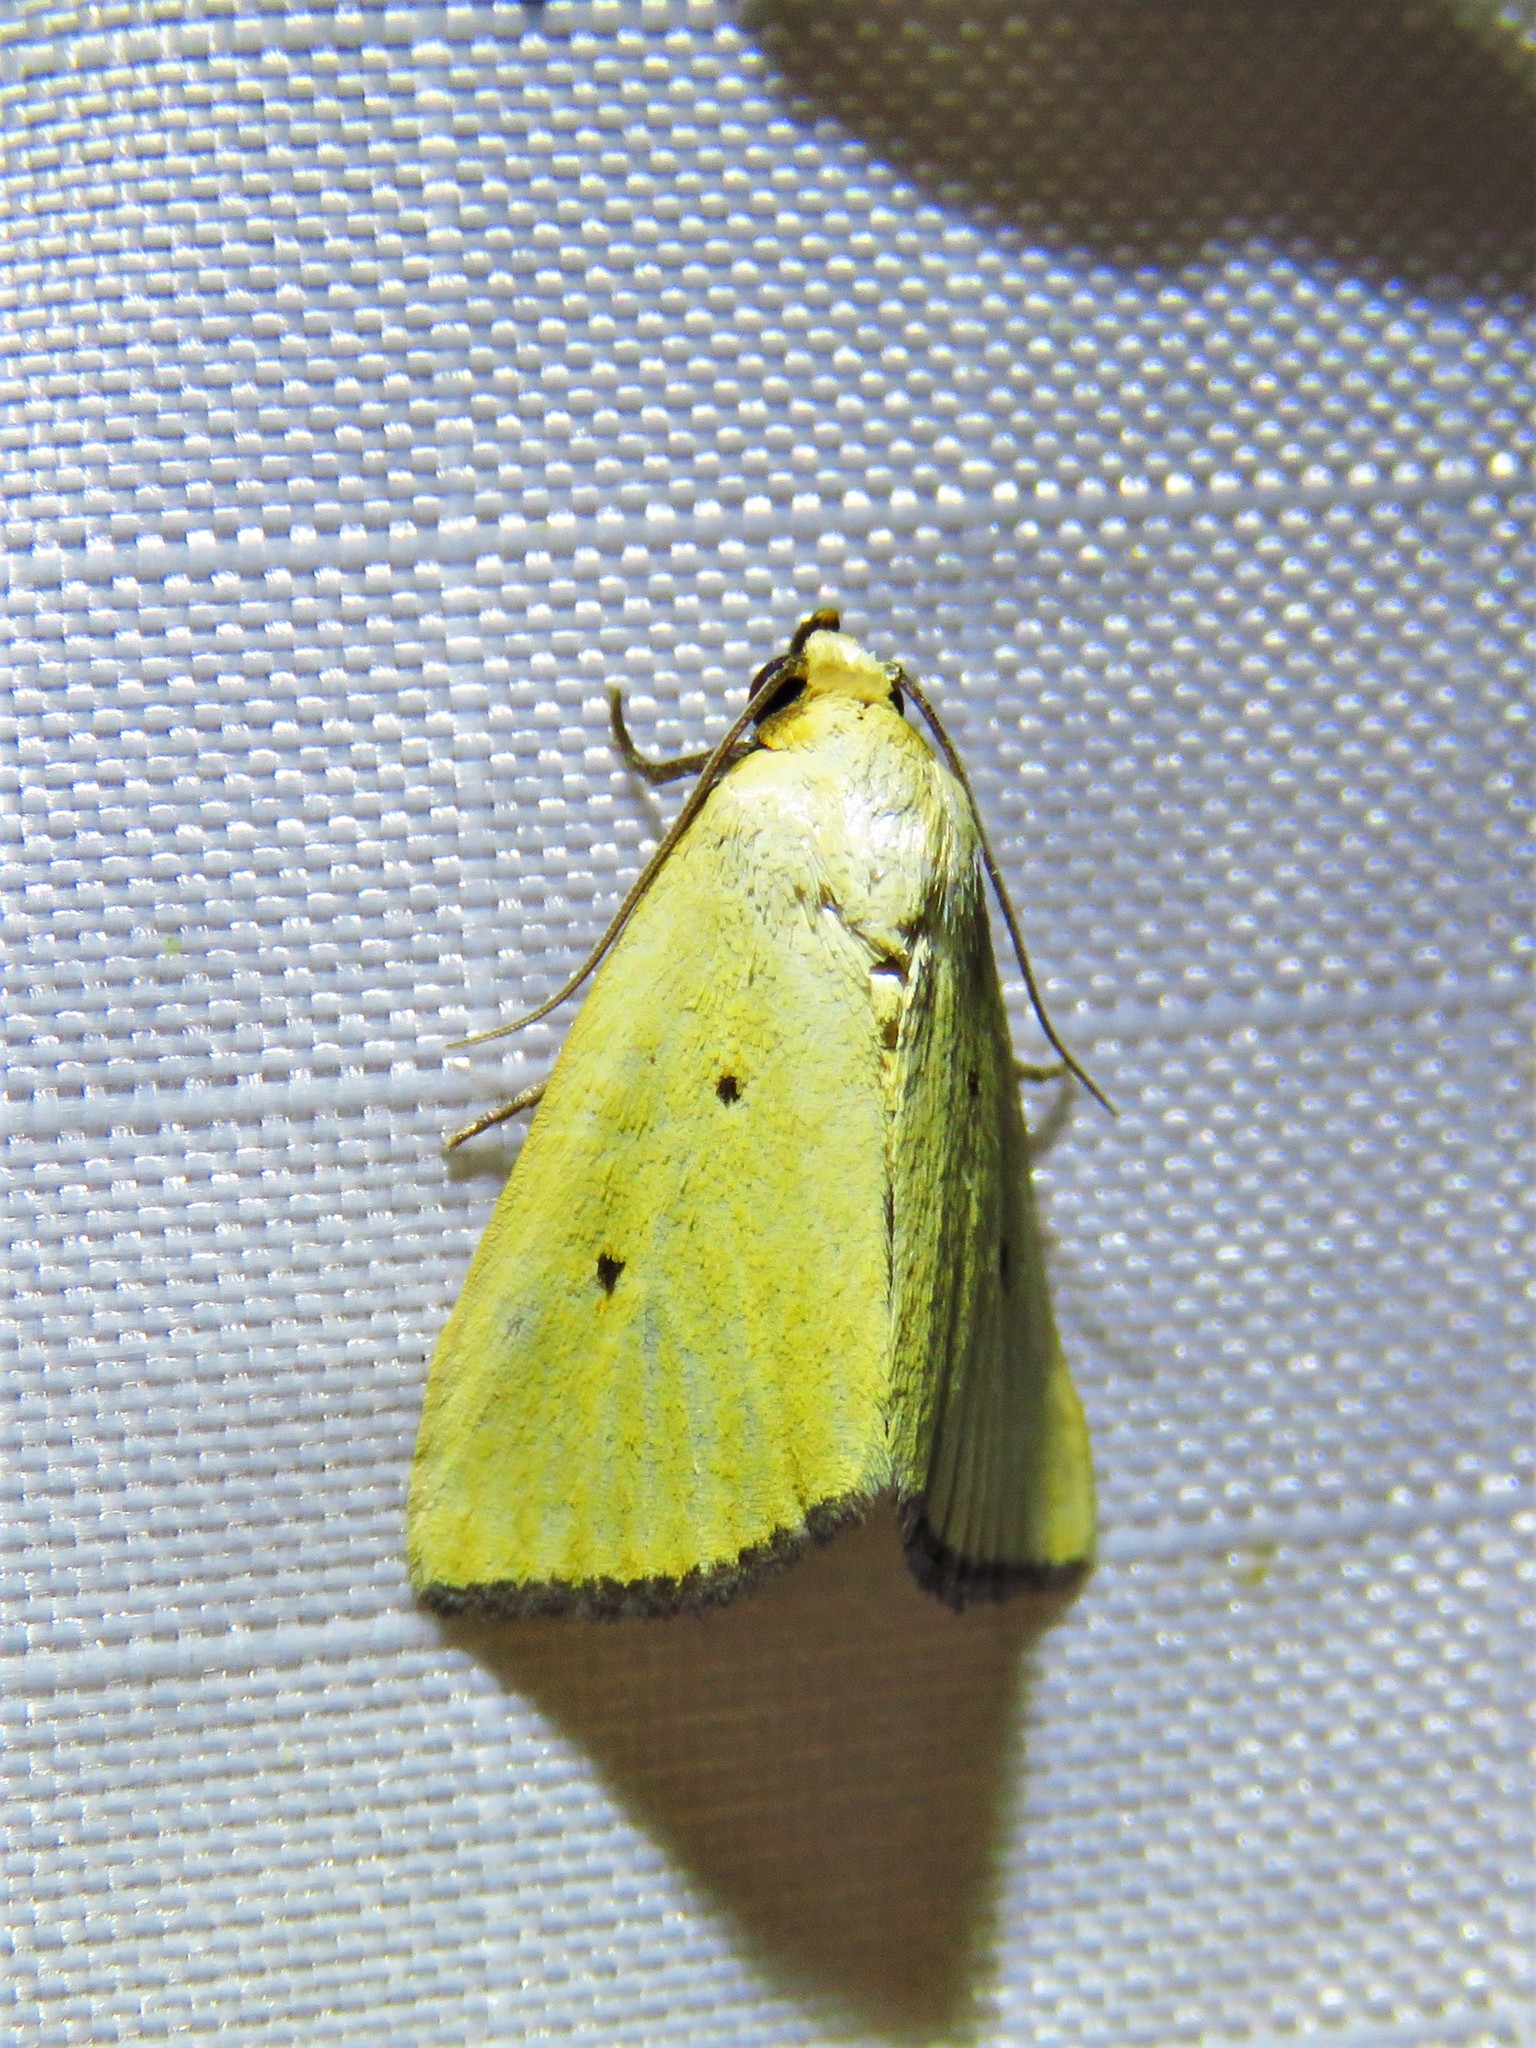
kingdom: Animalia
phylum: Arthropoda
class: Insecta
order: Lepidoptera
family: Noctuidae
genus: Marimatha
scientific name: Marimatha nigrofimbria
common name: Black-bordered lemon moth
